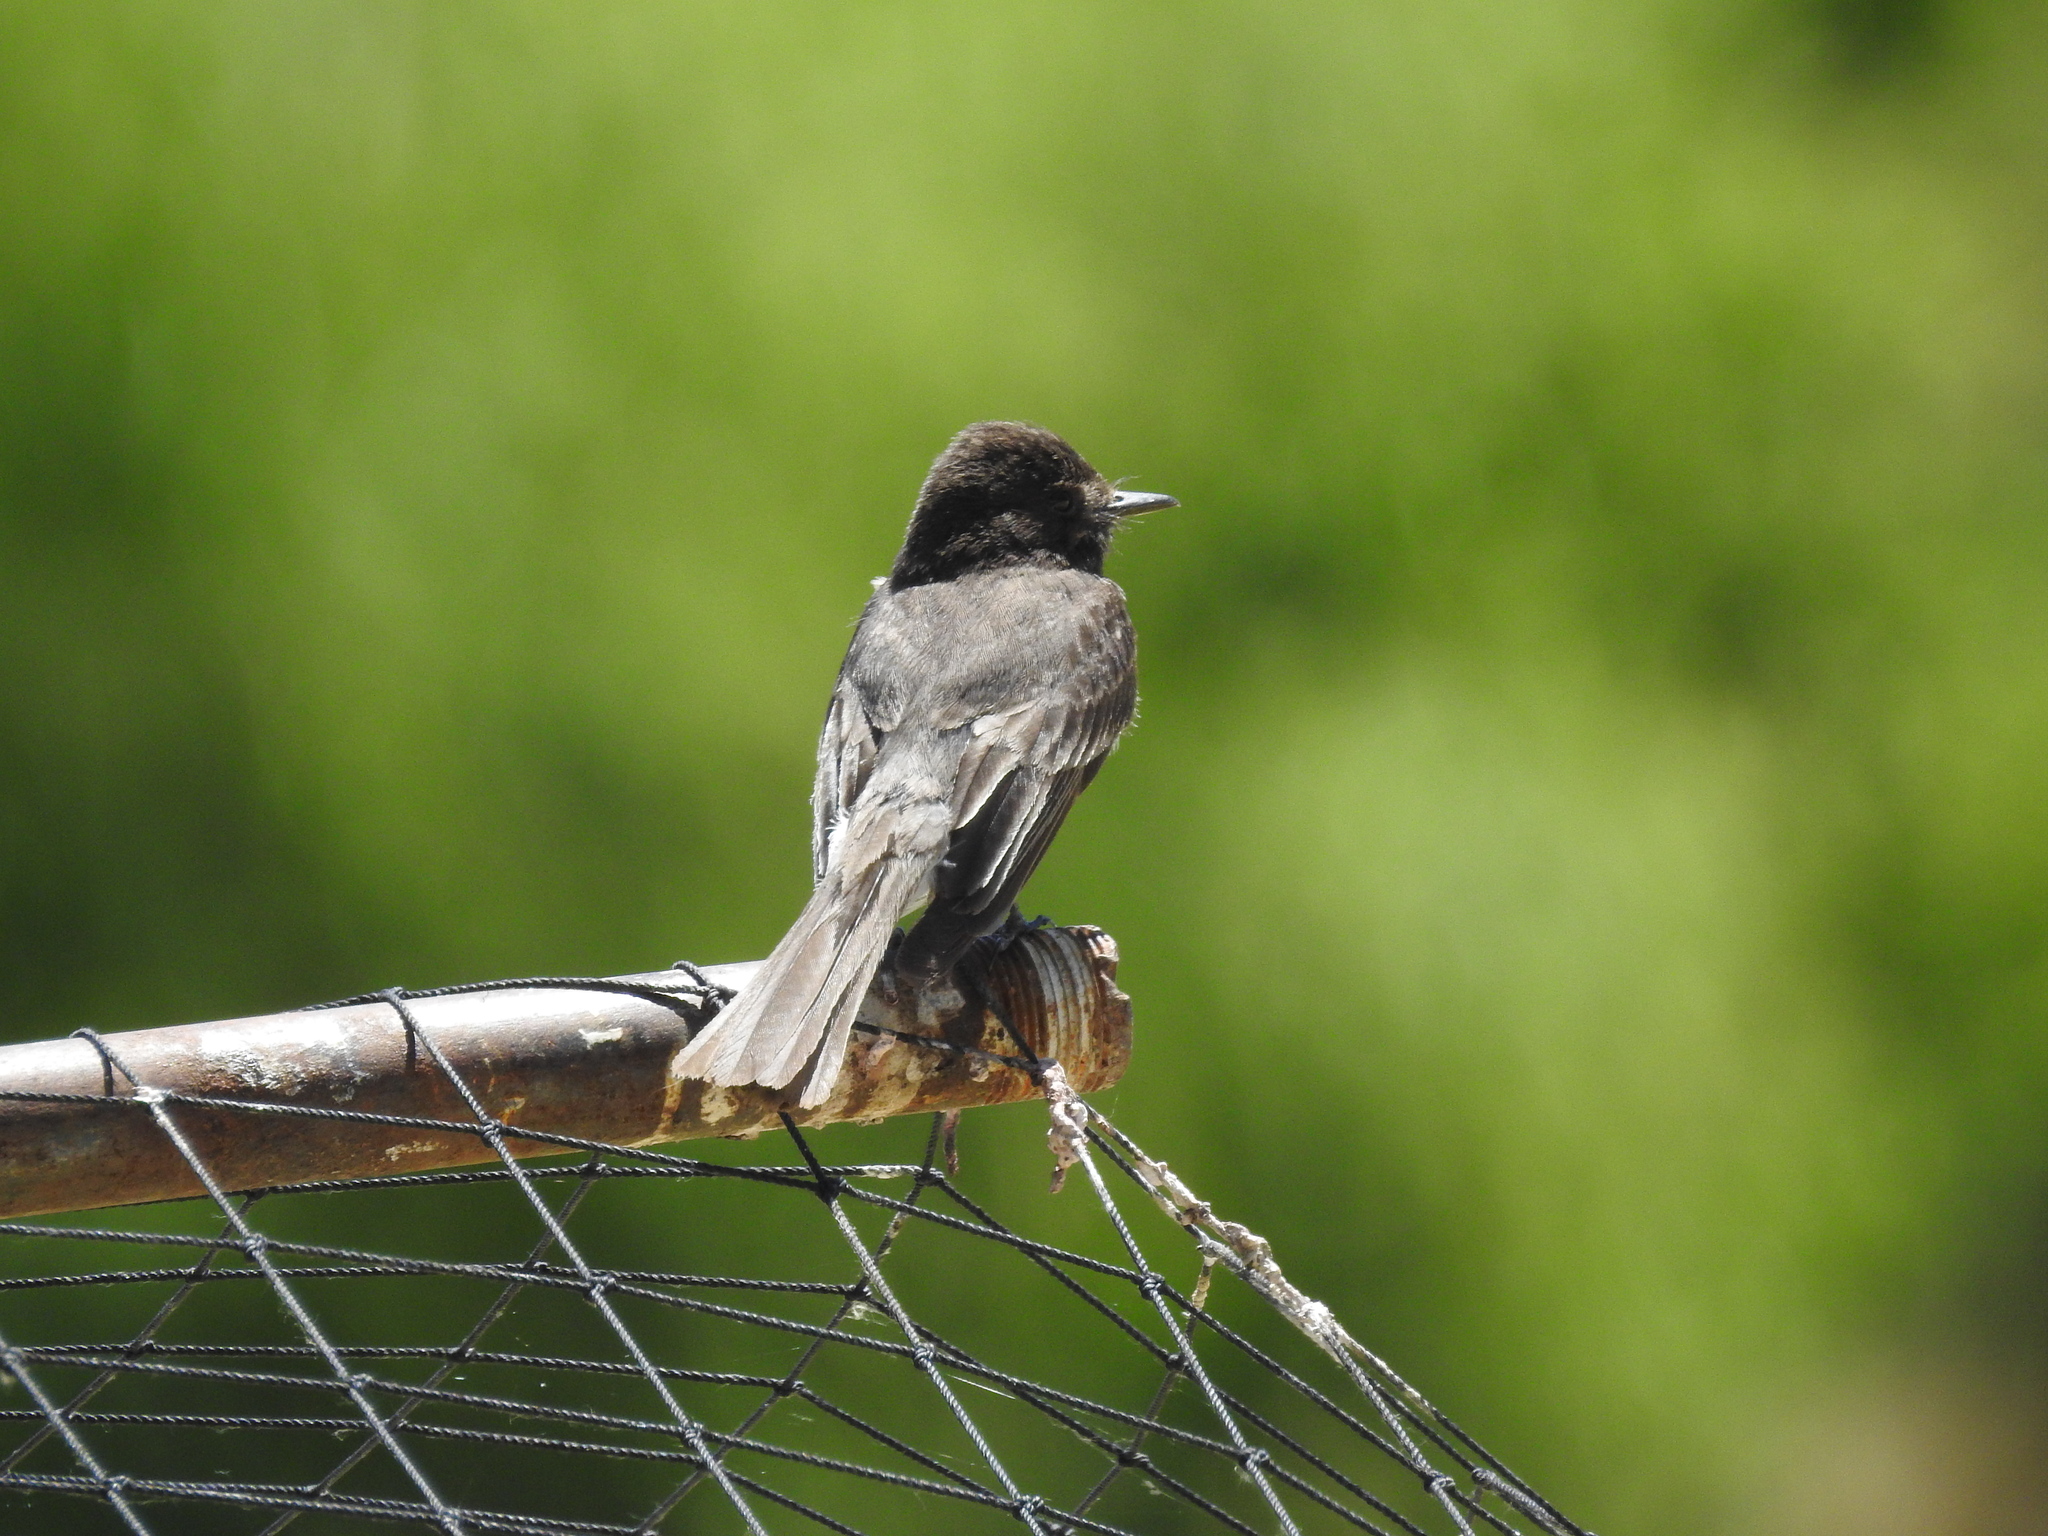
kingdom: Animalia
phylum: Chordata
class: Aves
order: Passeriformes
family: Tyrannidae
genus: Sayornis
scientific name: Sayornis nigricans
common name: Black phoebe
